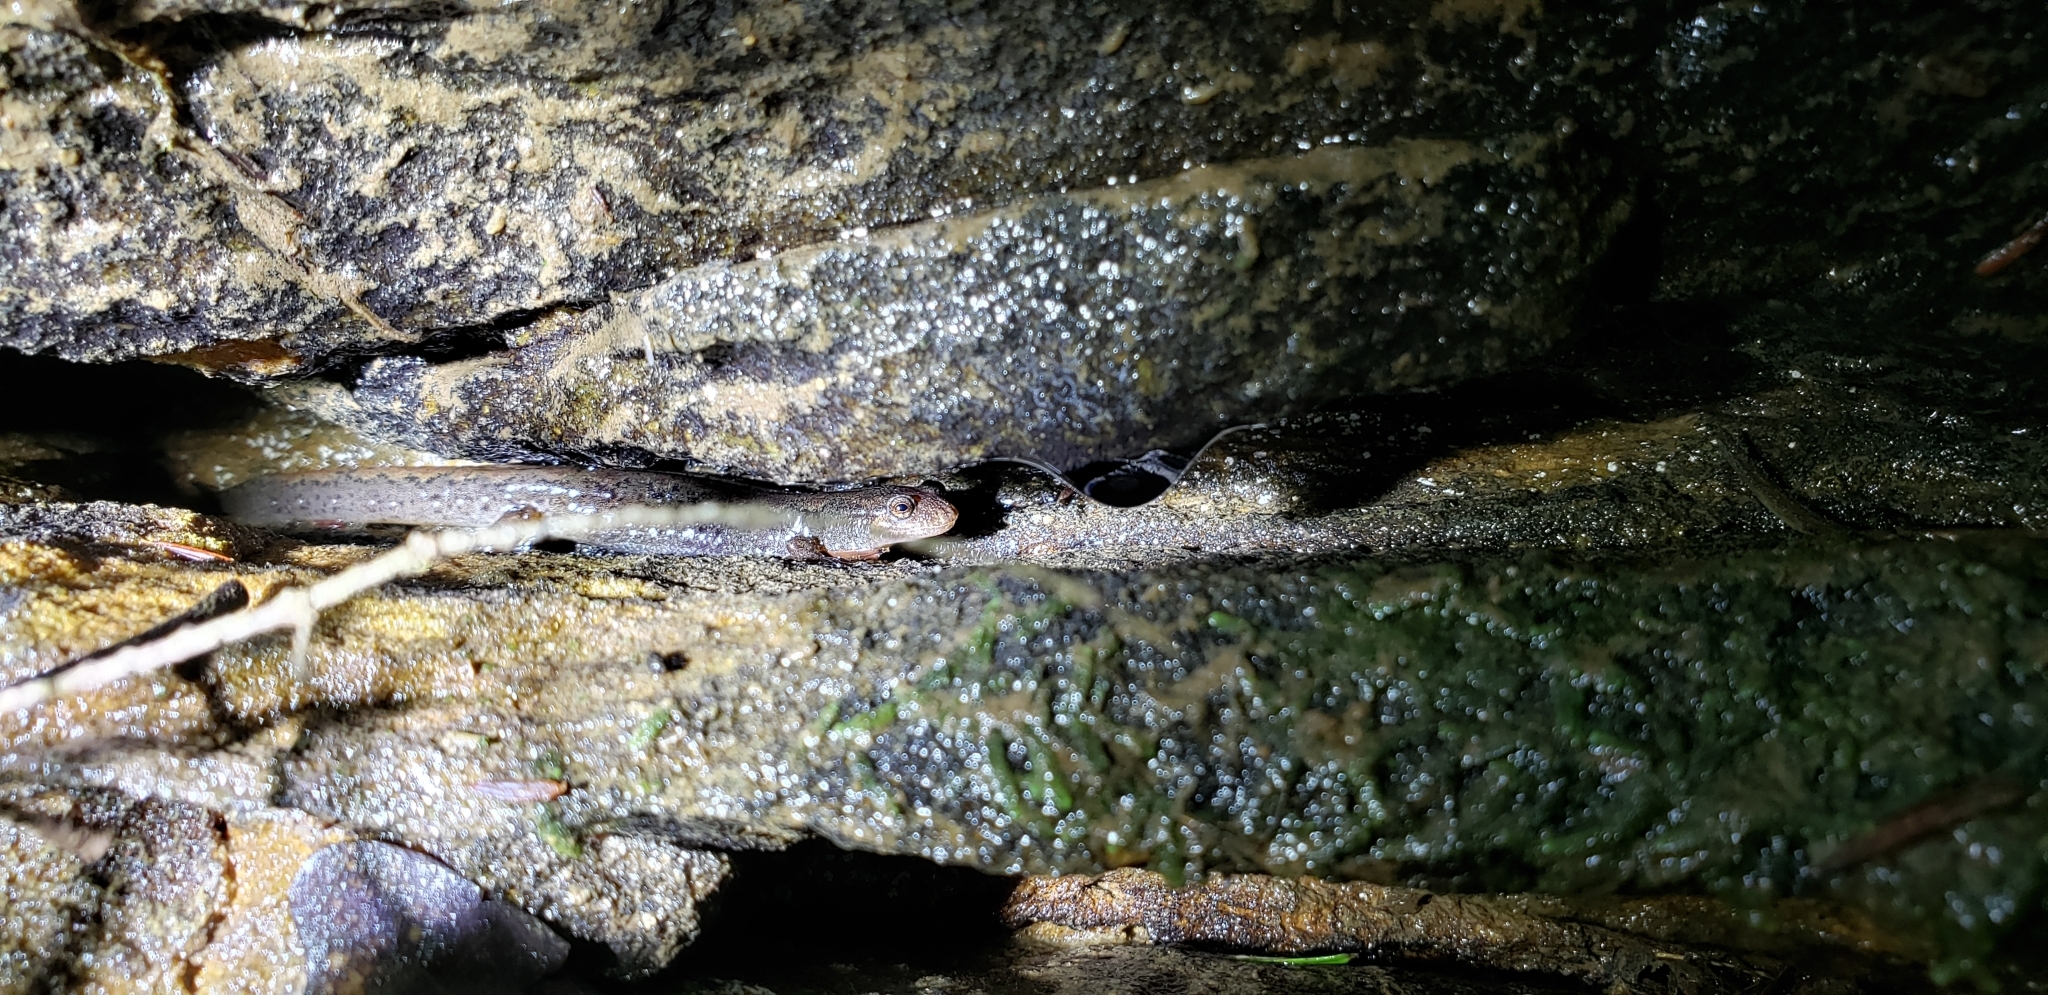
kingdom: Animalia
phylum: Chordata
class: Amphibia
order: Caudata
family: Plethodontidae
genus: Desmognathus
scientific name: Desmognathus conanti
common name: Spotted dusky salamander
